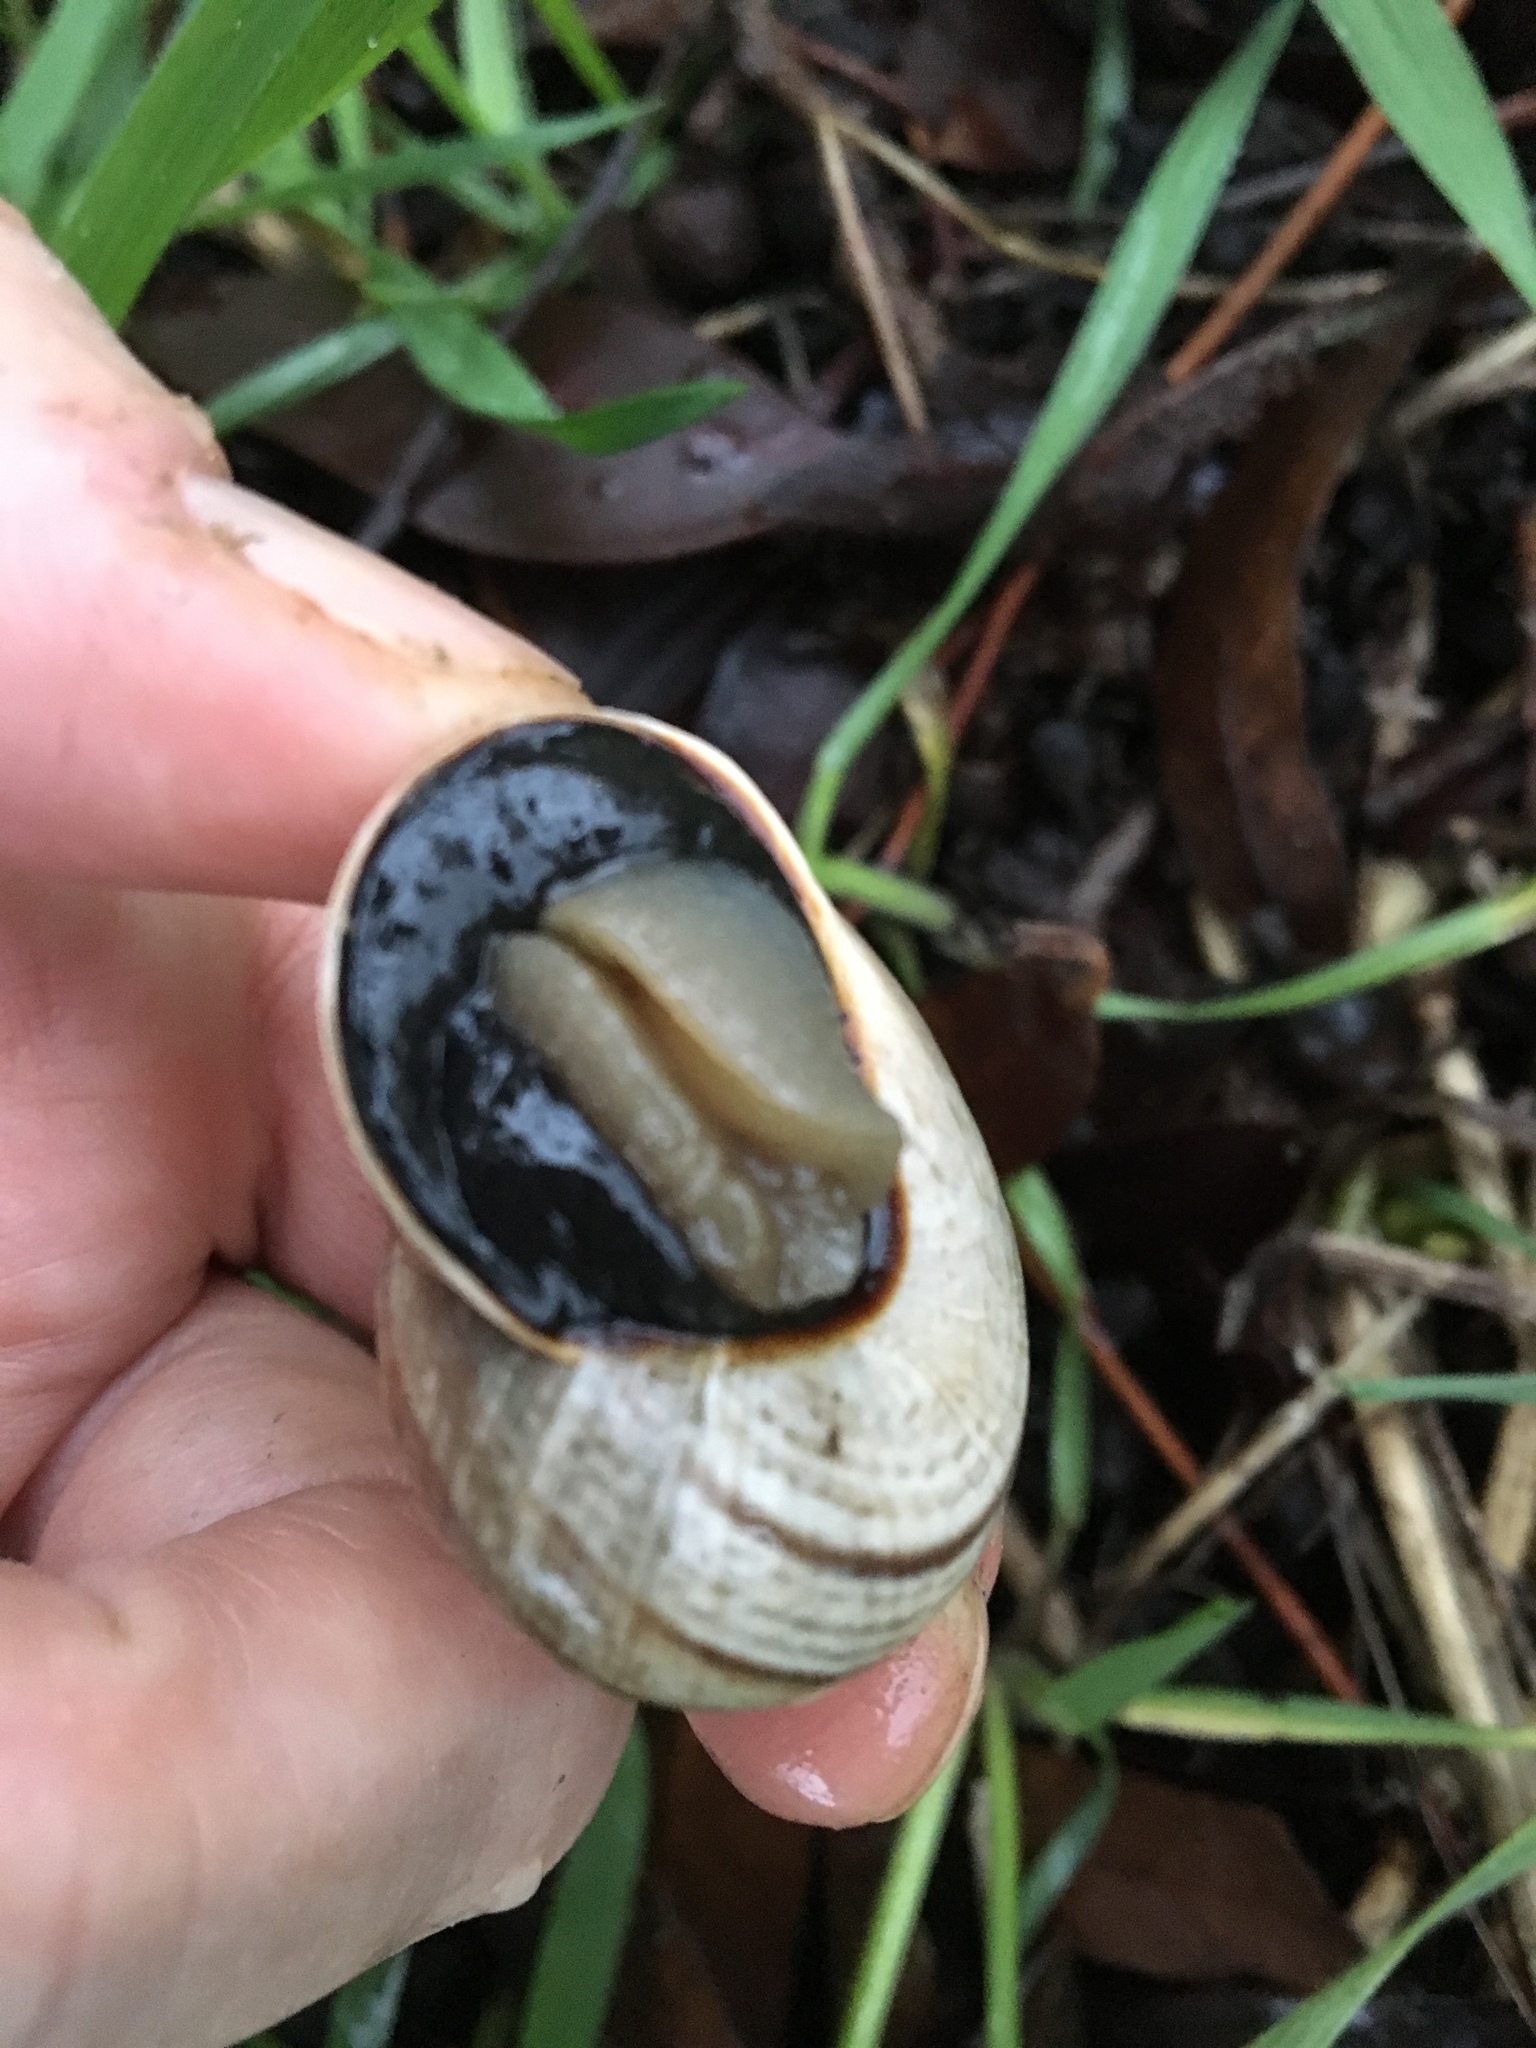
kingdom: Animalia
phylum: Mollusca
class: Gastropoda
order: Stylommatophora
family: Helicidae
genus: Otala
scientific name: Otala lactea
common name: Milk snail
